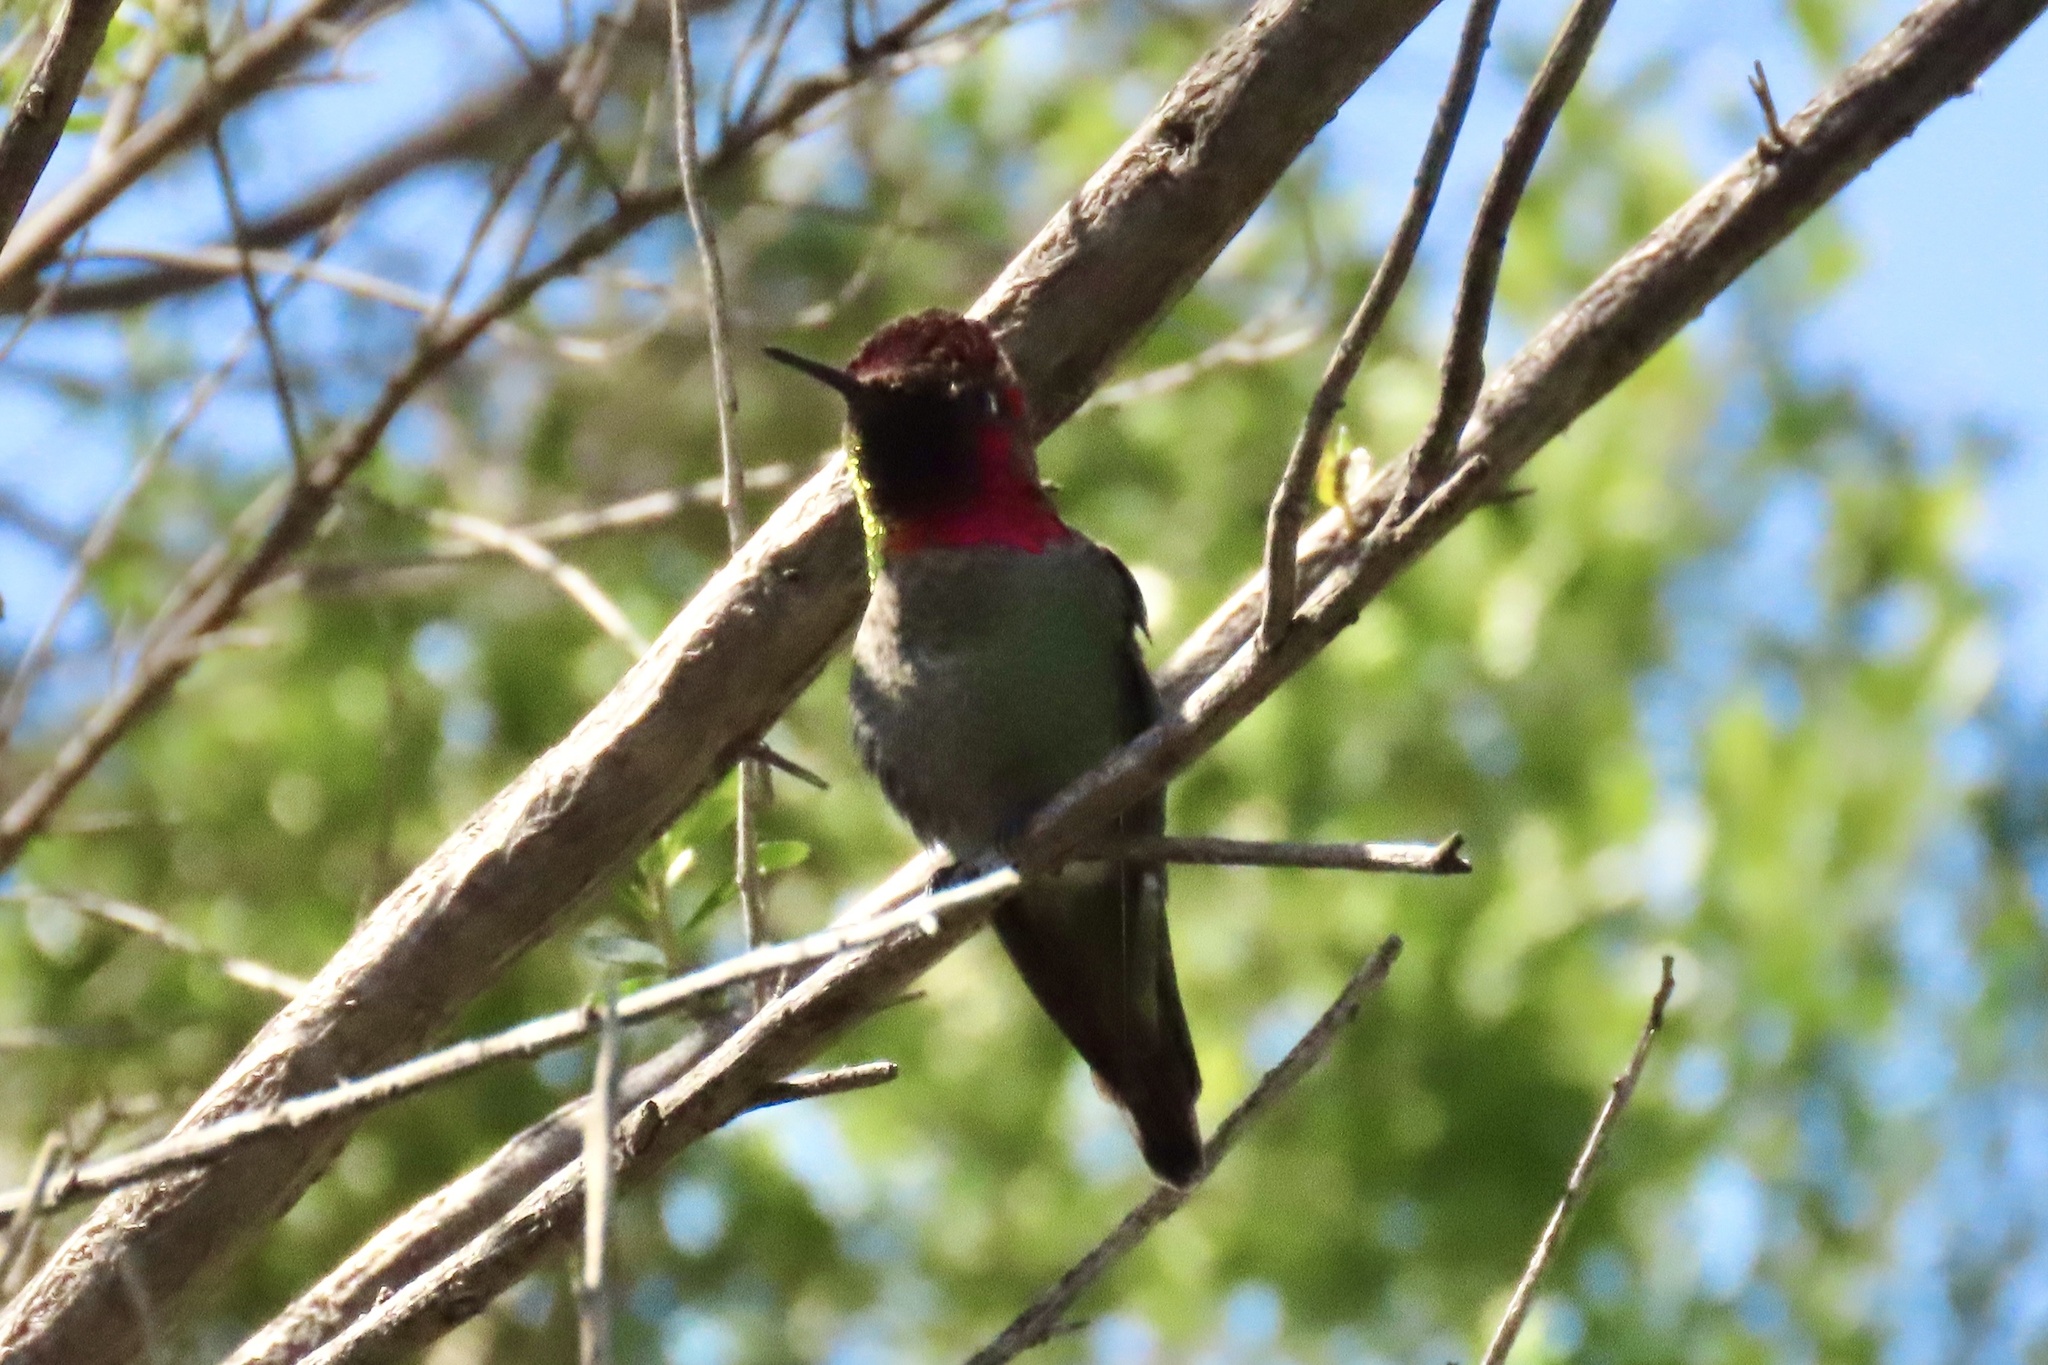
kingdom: Animalia
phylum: Chordata
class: Aves
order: Apodiformes
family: Trochilidae
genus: Calypte
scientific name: Calypte anna
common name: Anna's hummingbird
